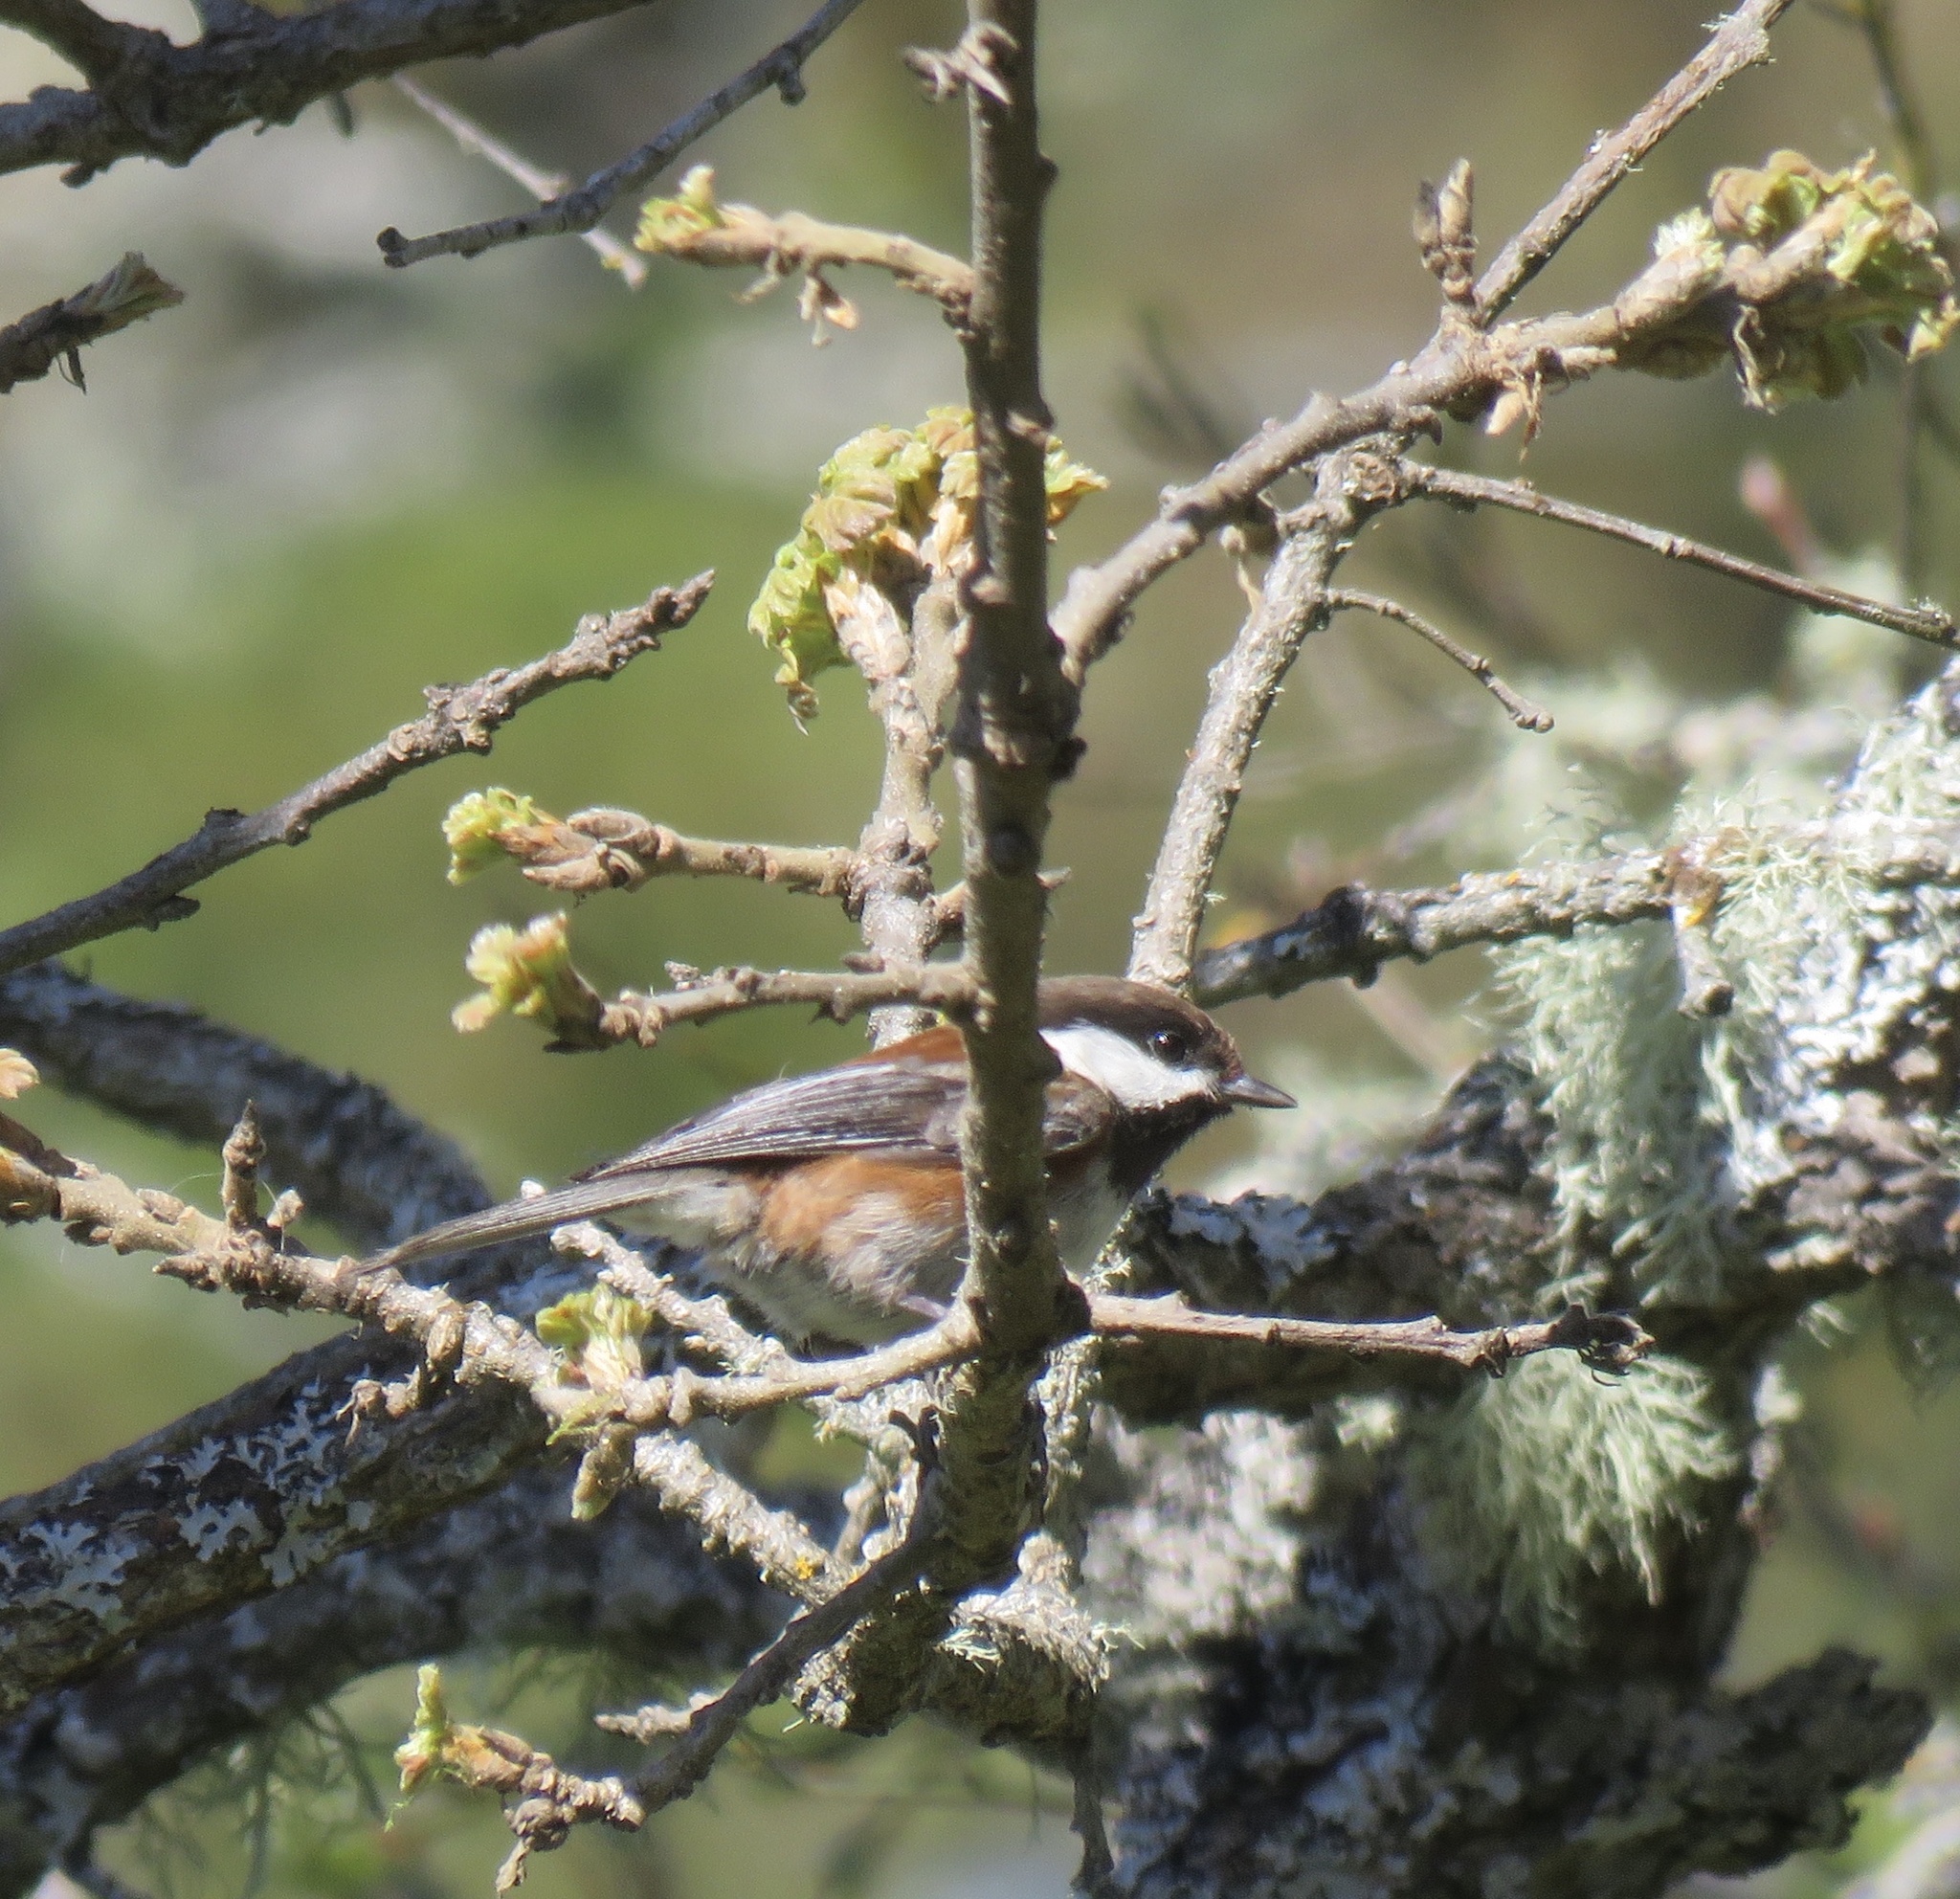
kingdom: Animalia
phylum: Chordata
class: Aves
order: Passeriformes
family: Paridae
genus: Poecile
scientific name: Poecile rufescens
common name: Chestnut-backed chickadee
